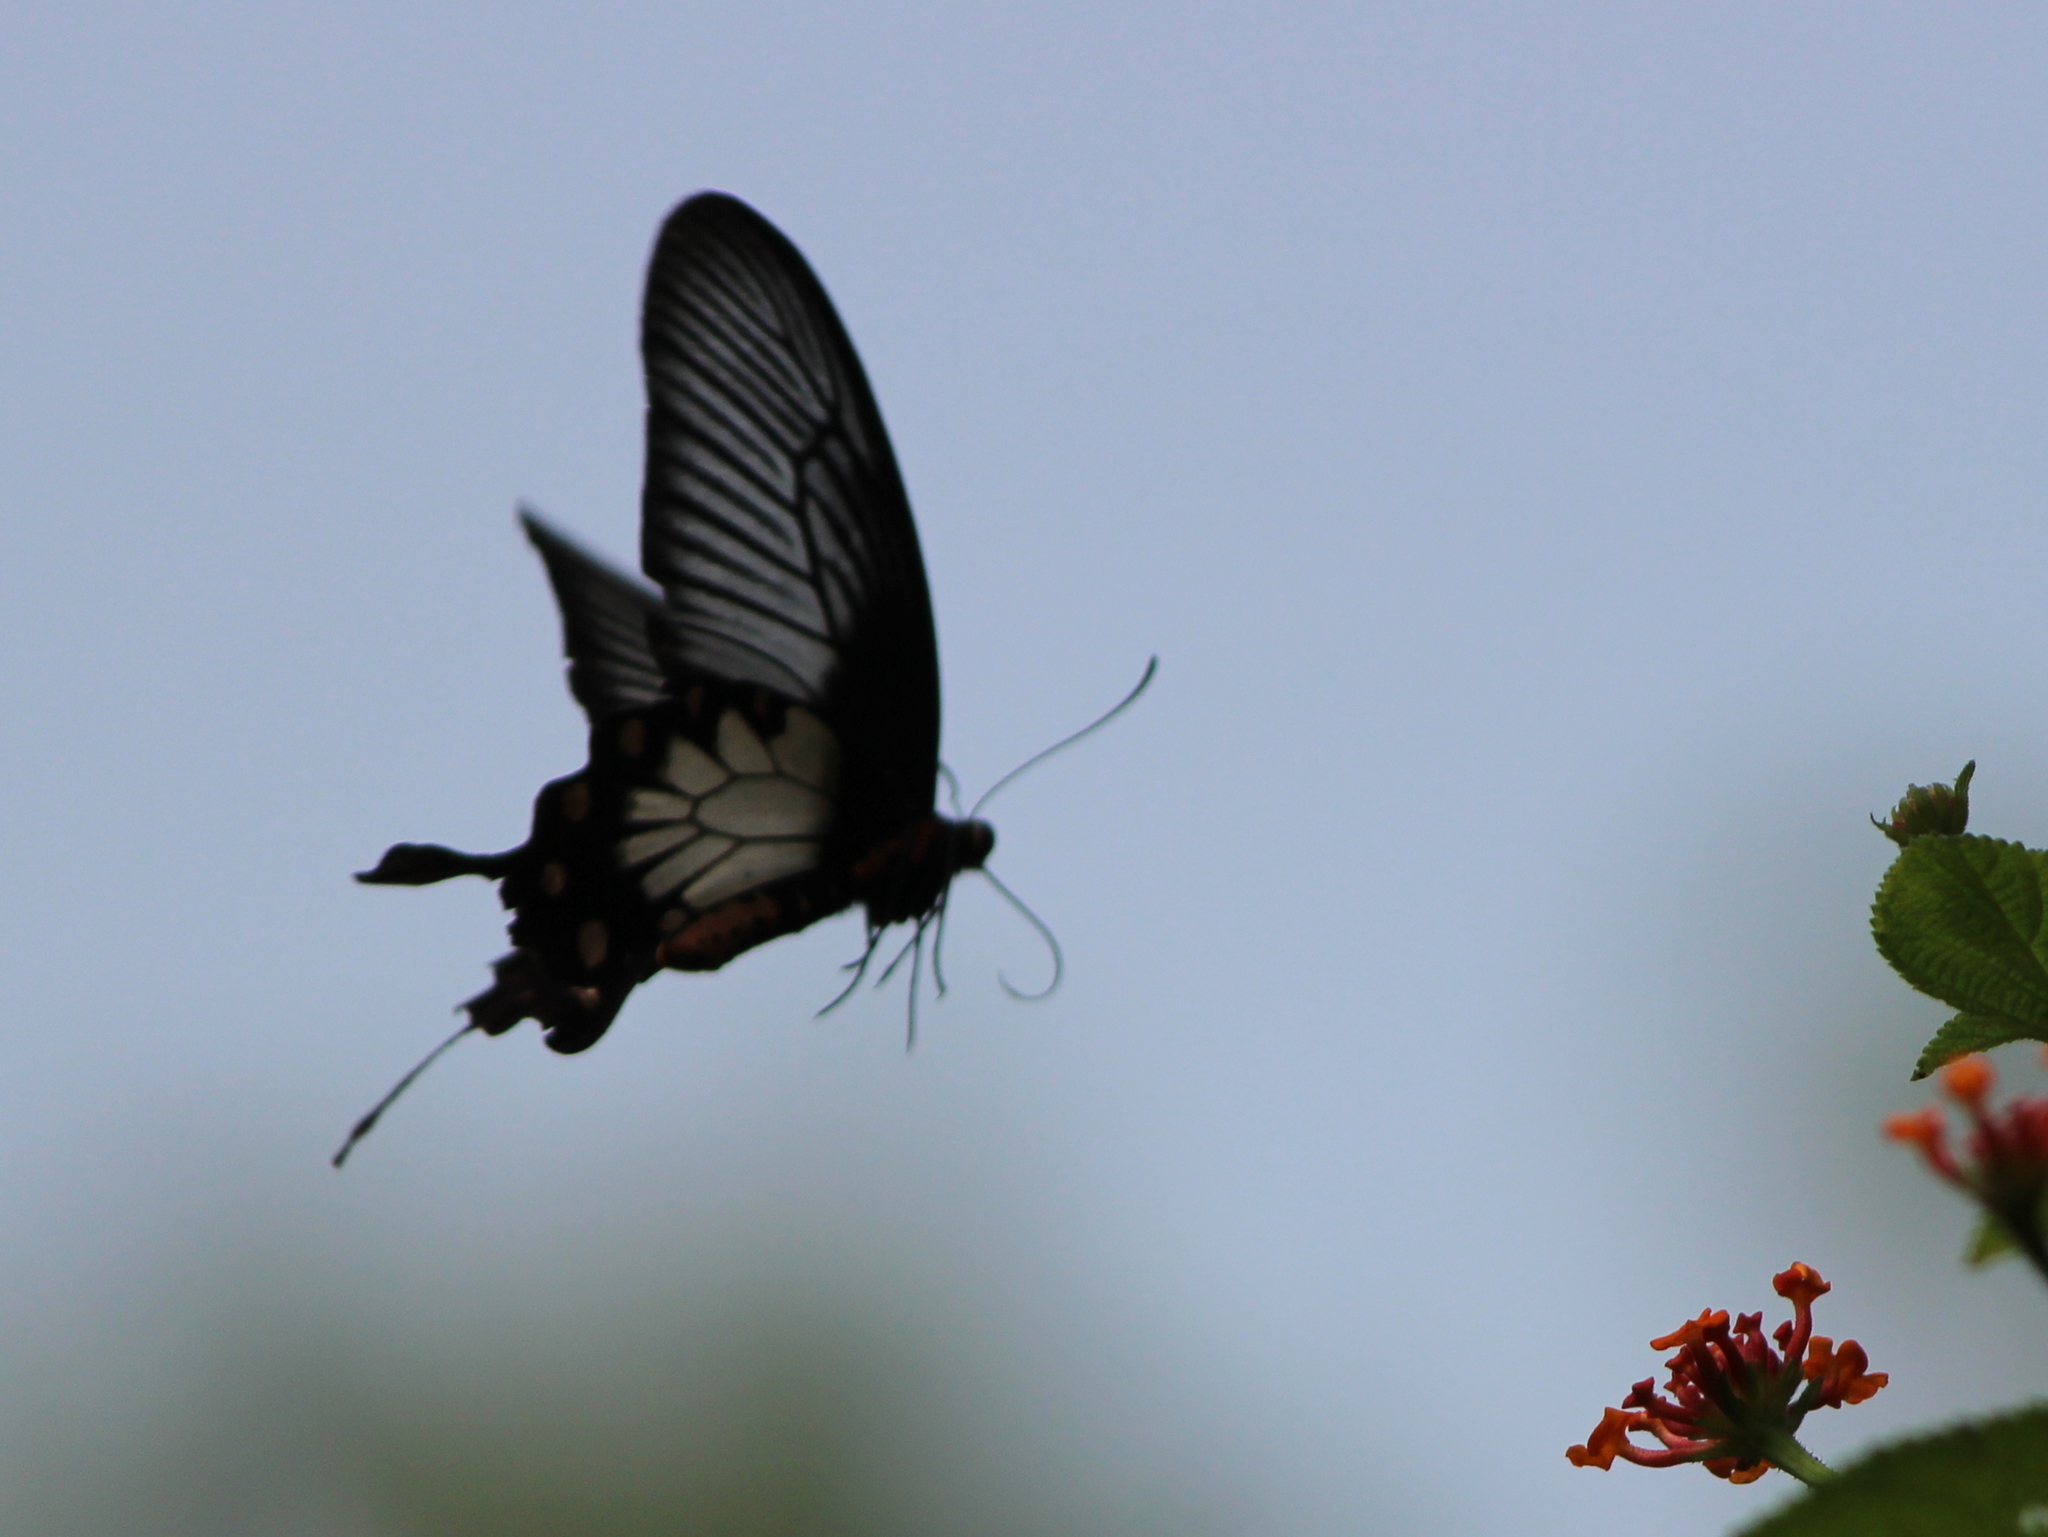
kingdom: Animalia
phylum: Arthropoda
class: Insecta
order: Lepidoptera
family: Papilionidae
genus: Pachliopta
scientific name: Pachliopta pandiyana
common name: Malabar rose
